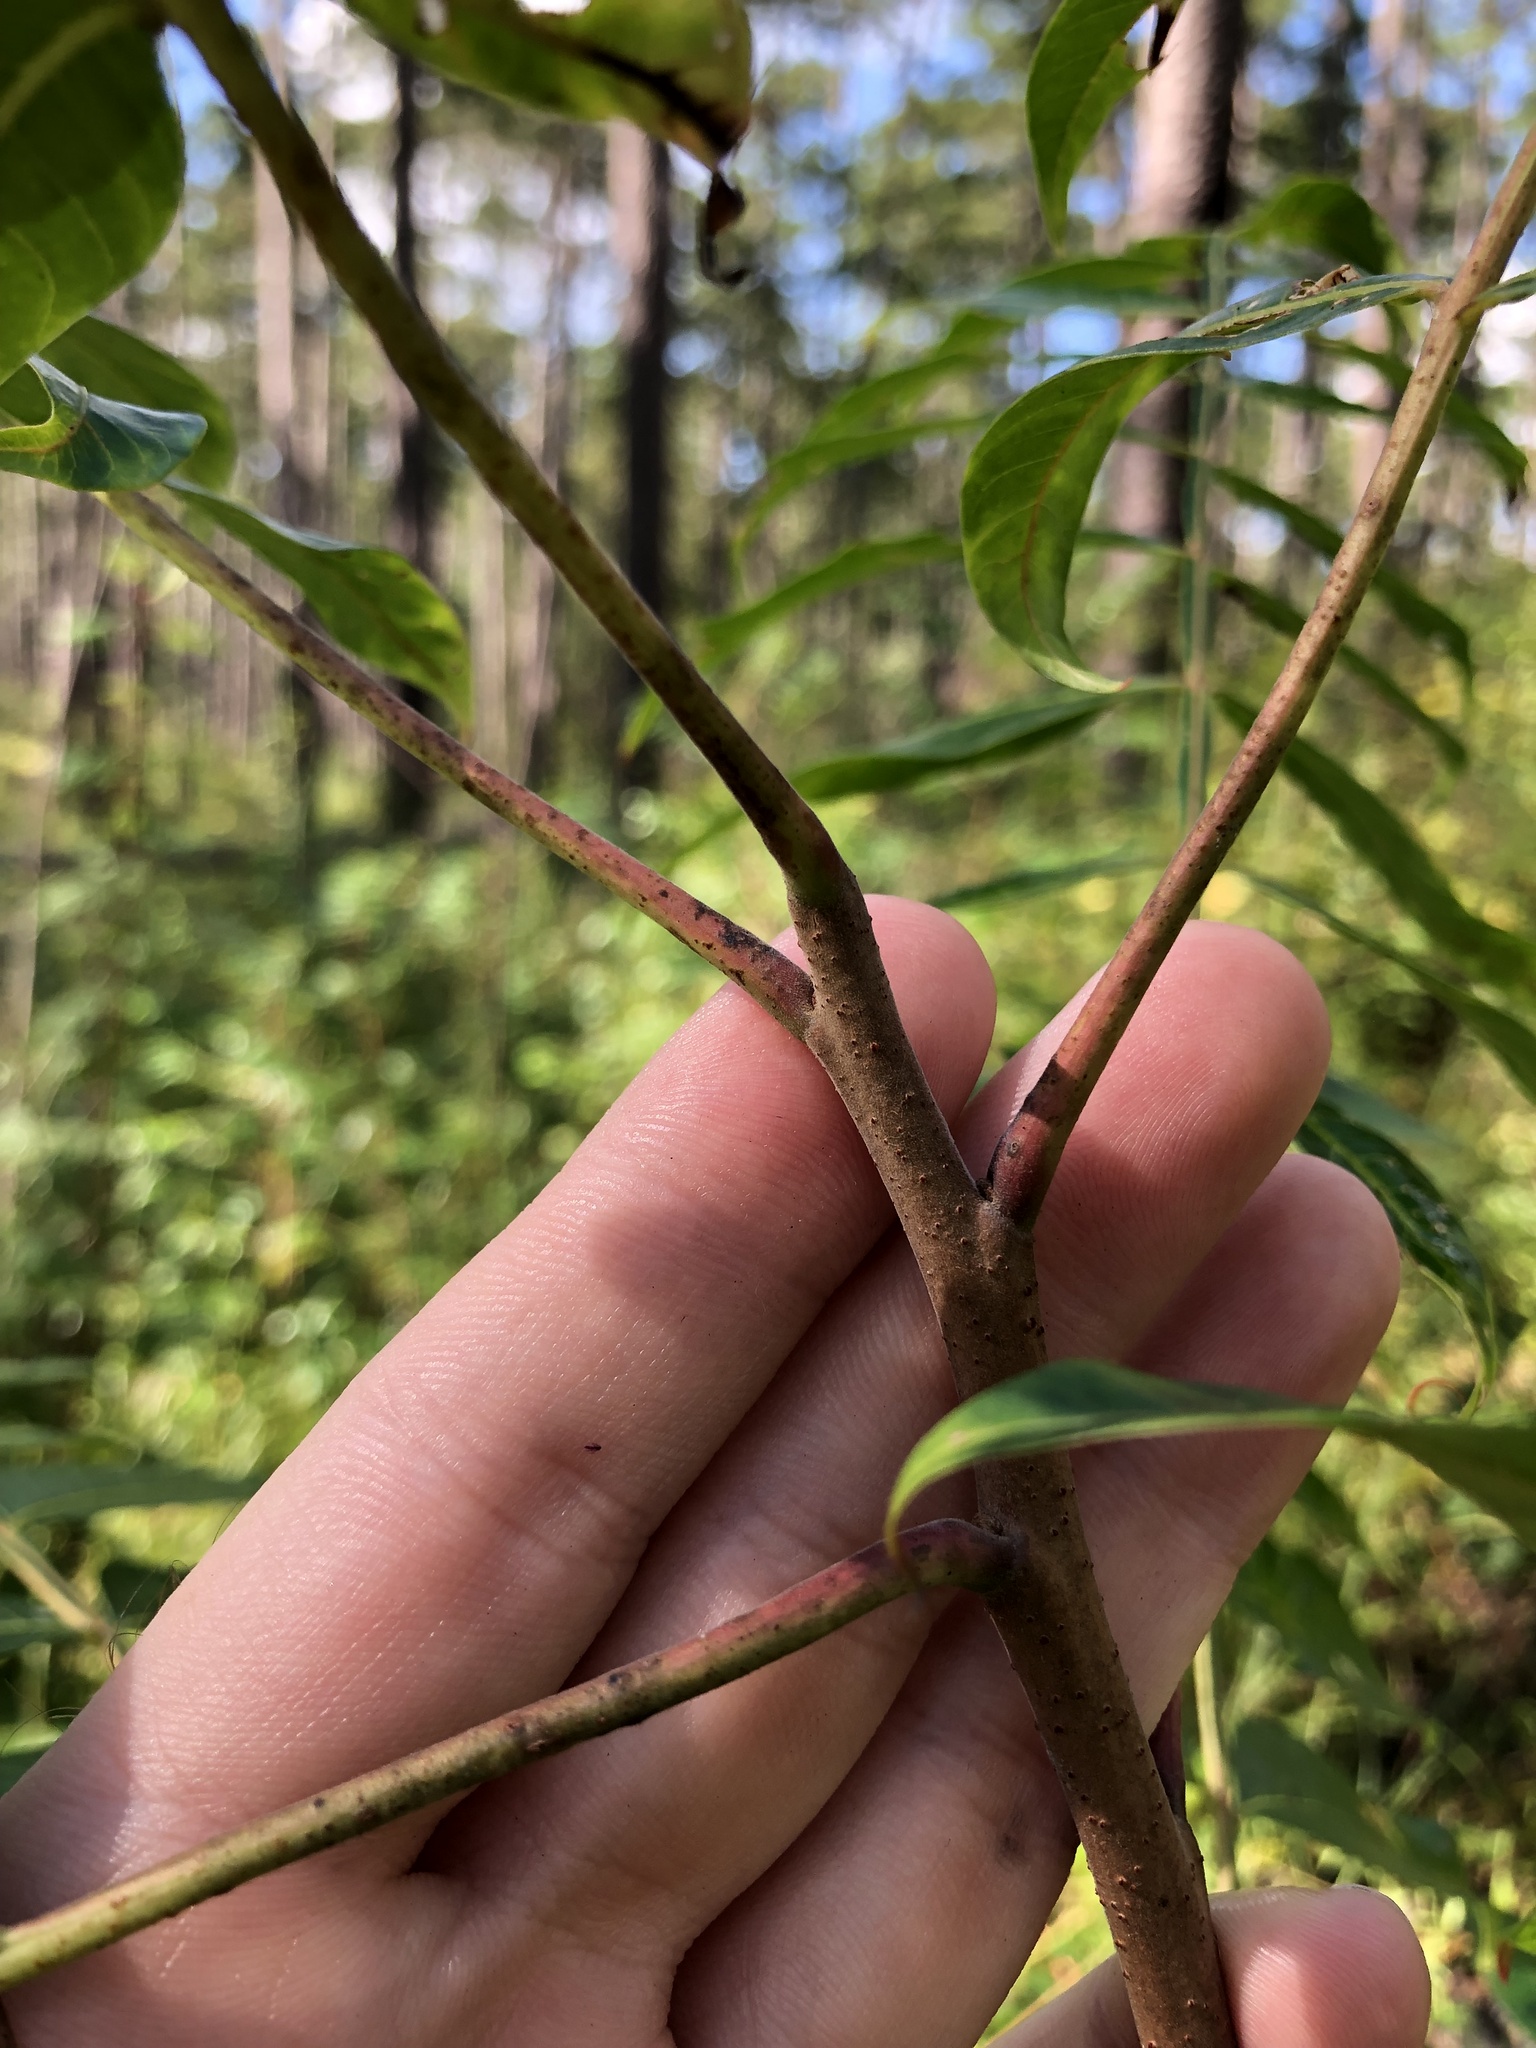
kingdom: Plantae
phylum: Tracheophyta
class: Magnoliopsida
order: Sapindales
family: Anacardiaceae
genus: Rhus
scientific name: Rhus copallina
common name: Shining sumac
